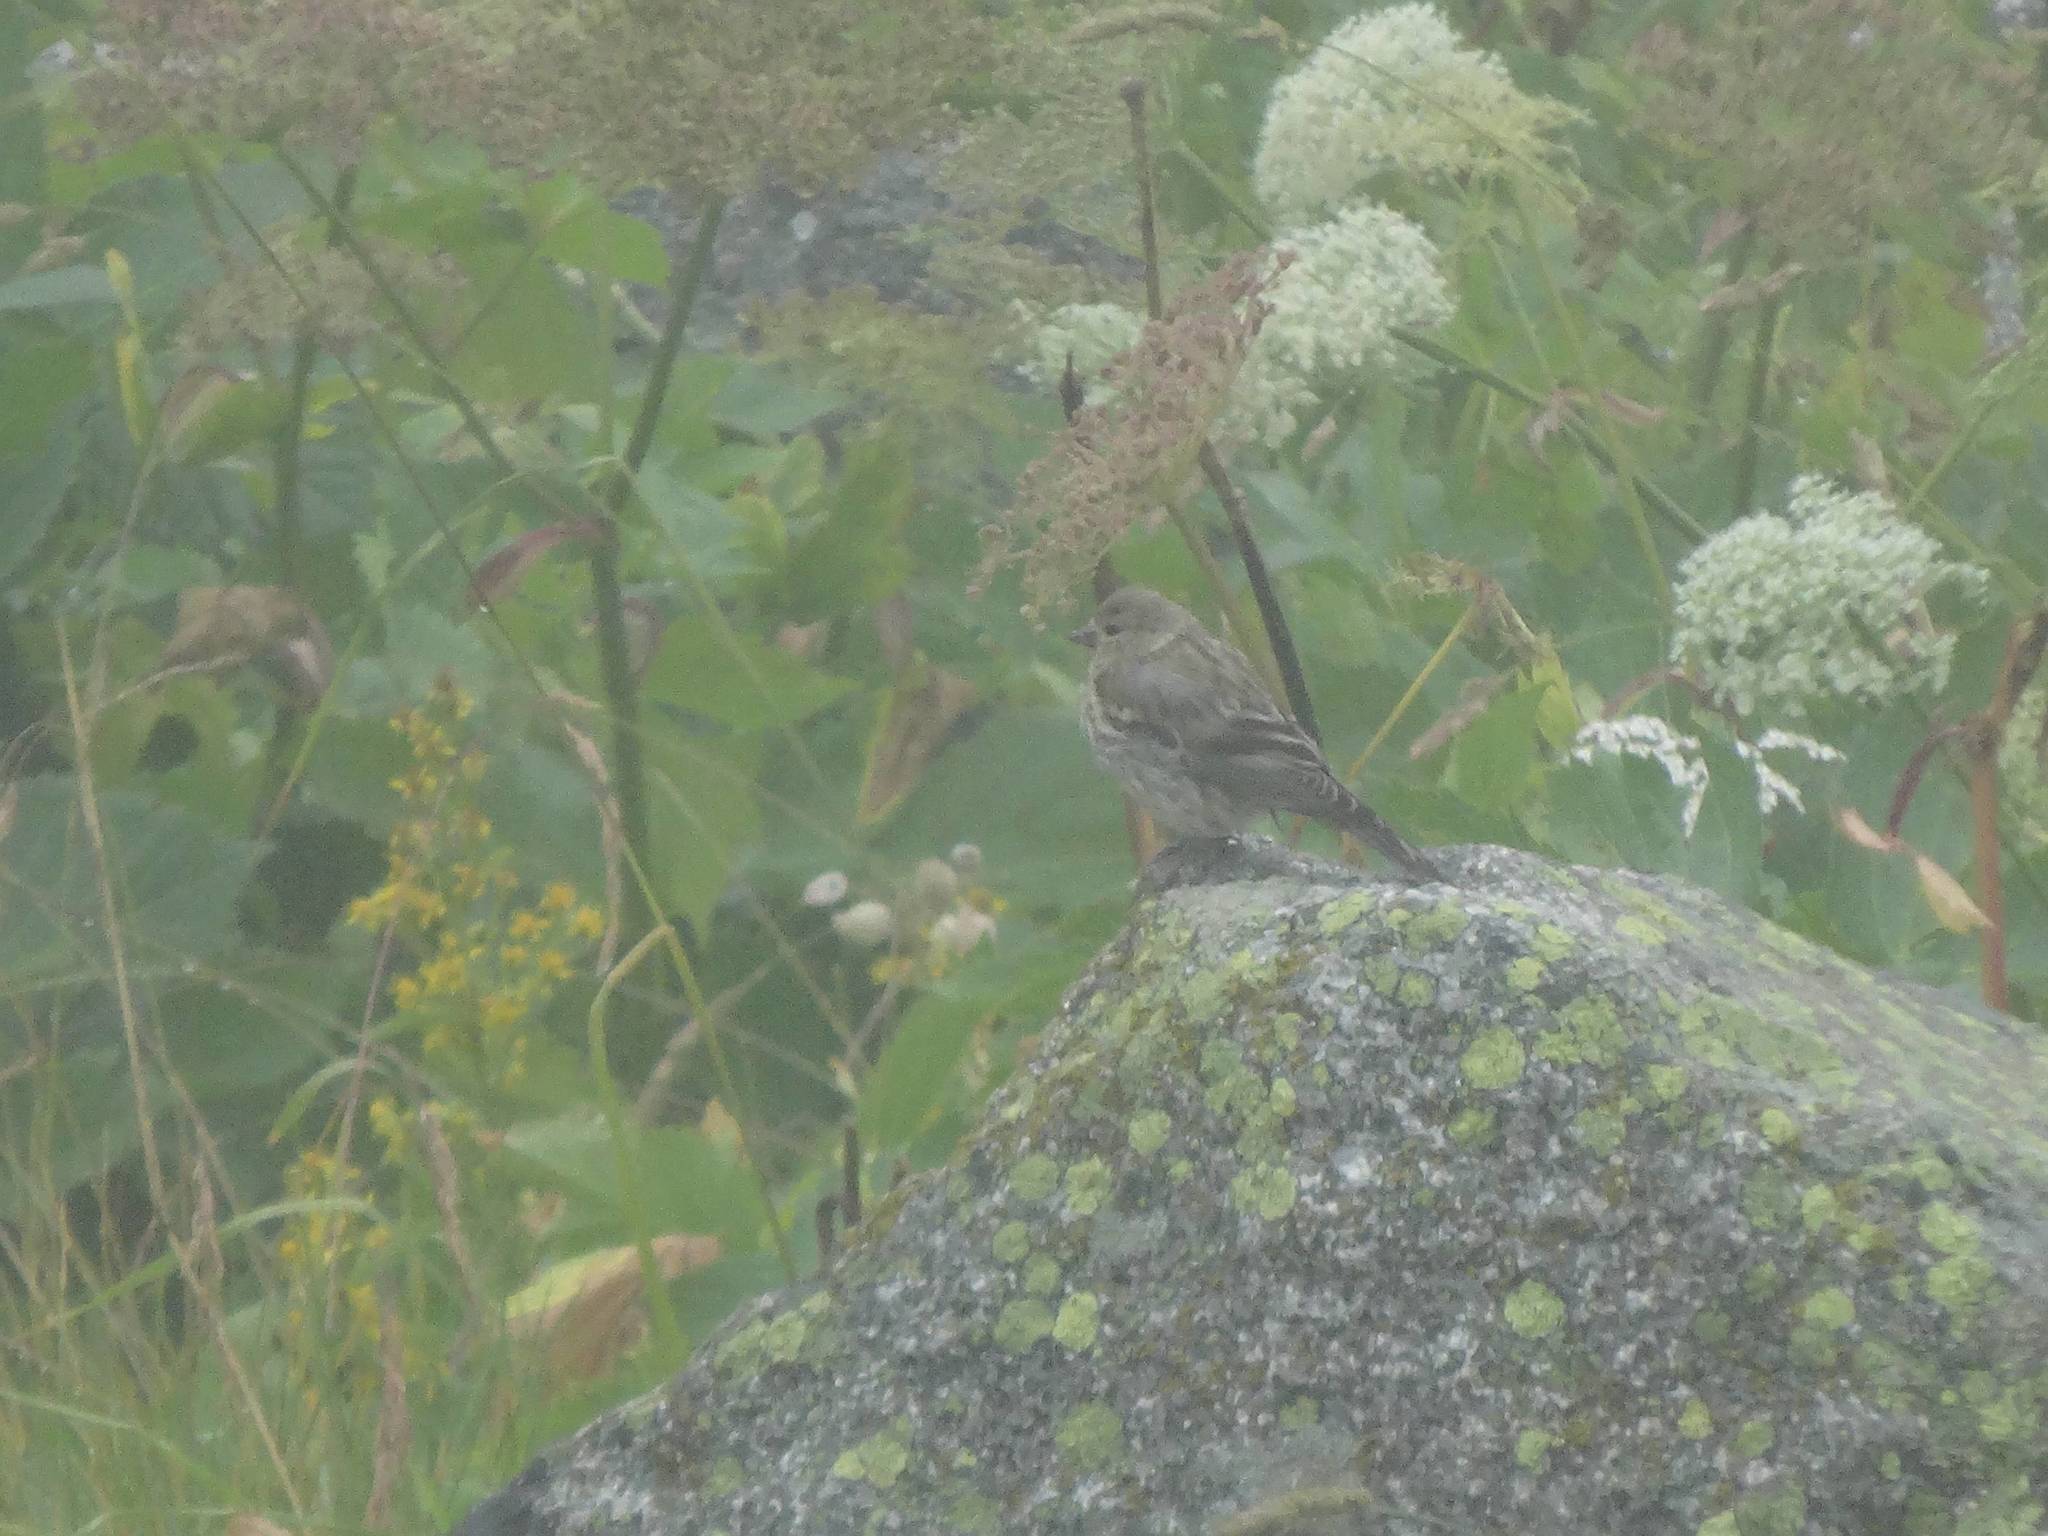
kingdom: Animalia
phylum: Chordata
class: Aves
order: Passeriformes
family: Fringillidae
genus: Carduelis
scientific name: Carduelis citrinella
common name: Citril finch
